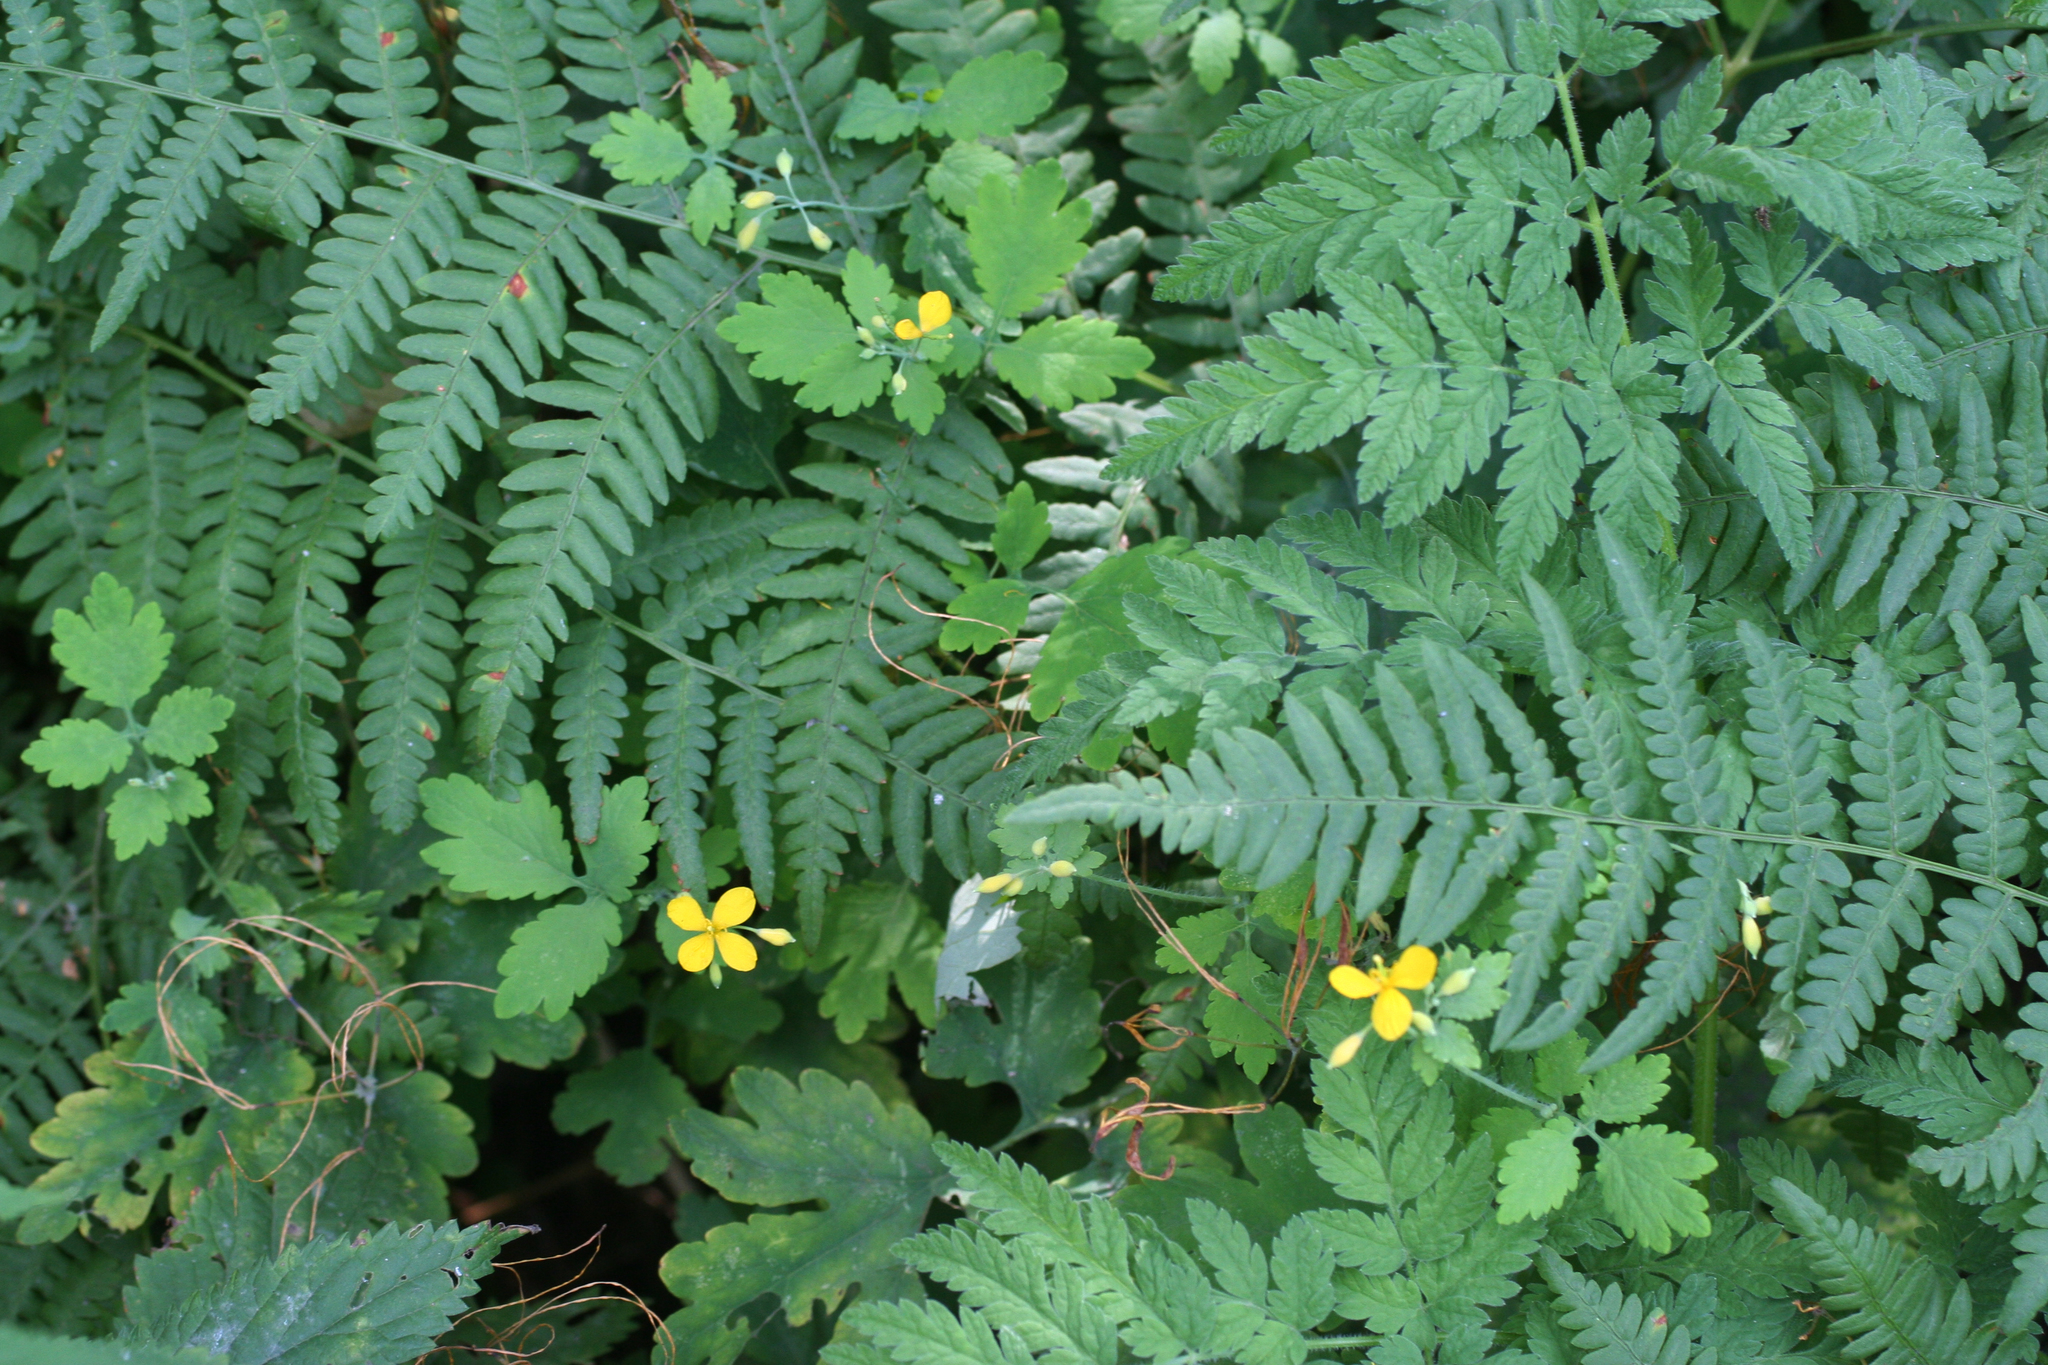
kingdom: Plantae
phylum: Tracheophyta
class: Magnoliopsida
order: Ranunculales
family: Papaveraceae
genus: Chelidonium
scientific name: Chelidonium majus
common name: Greater celandine
